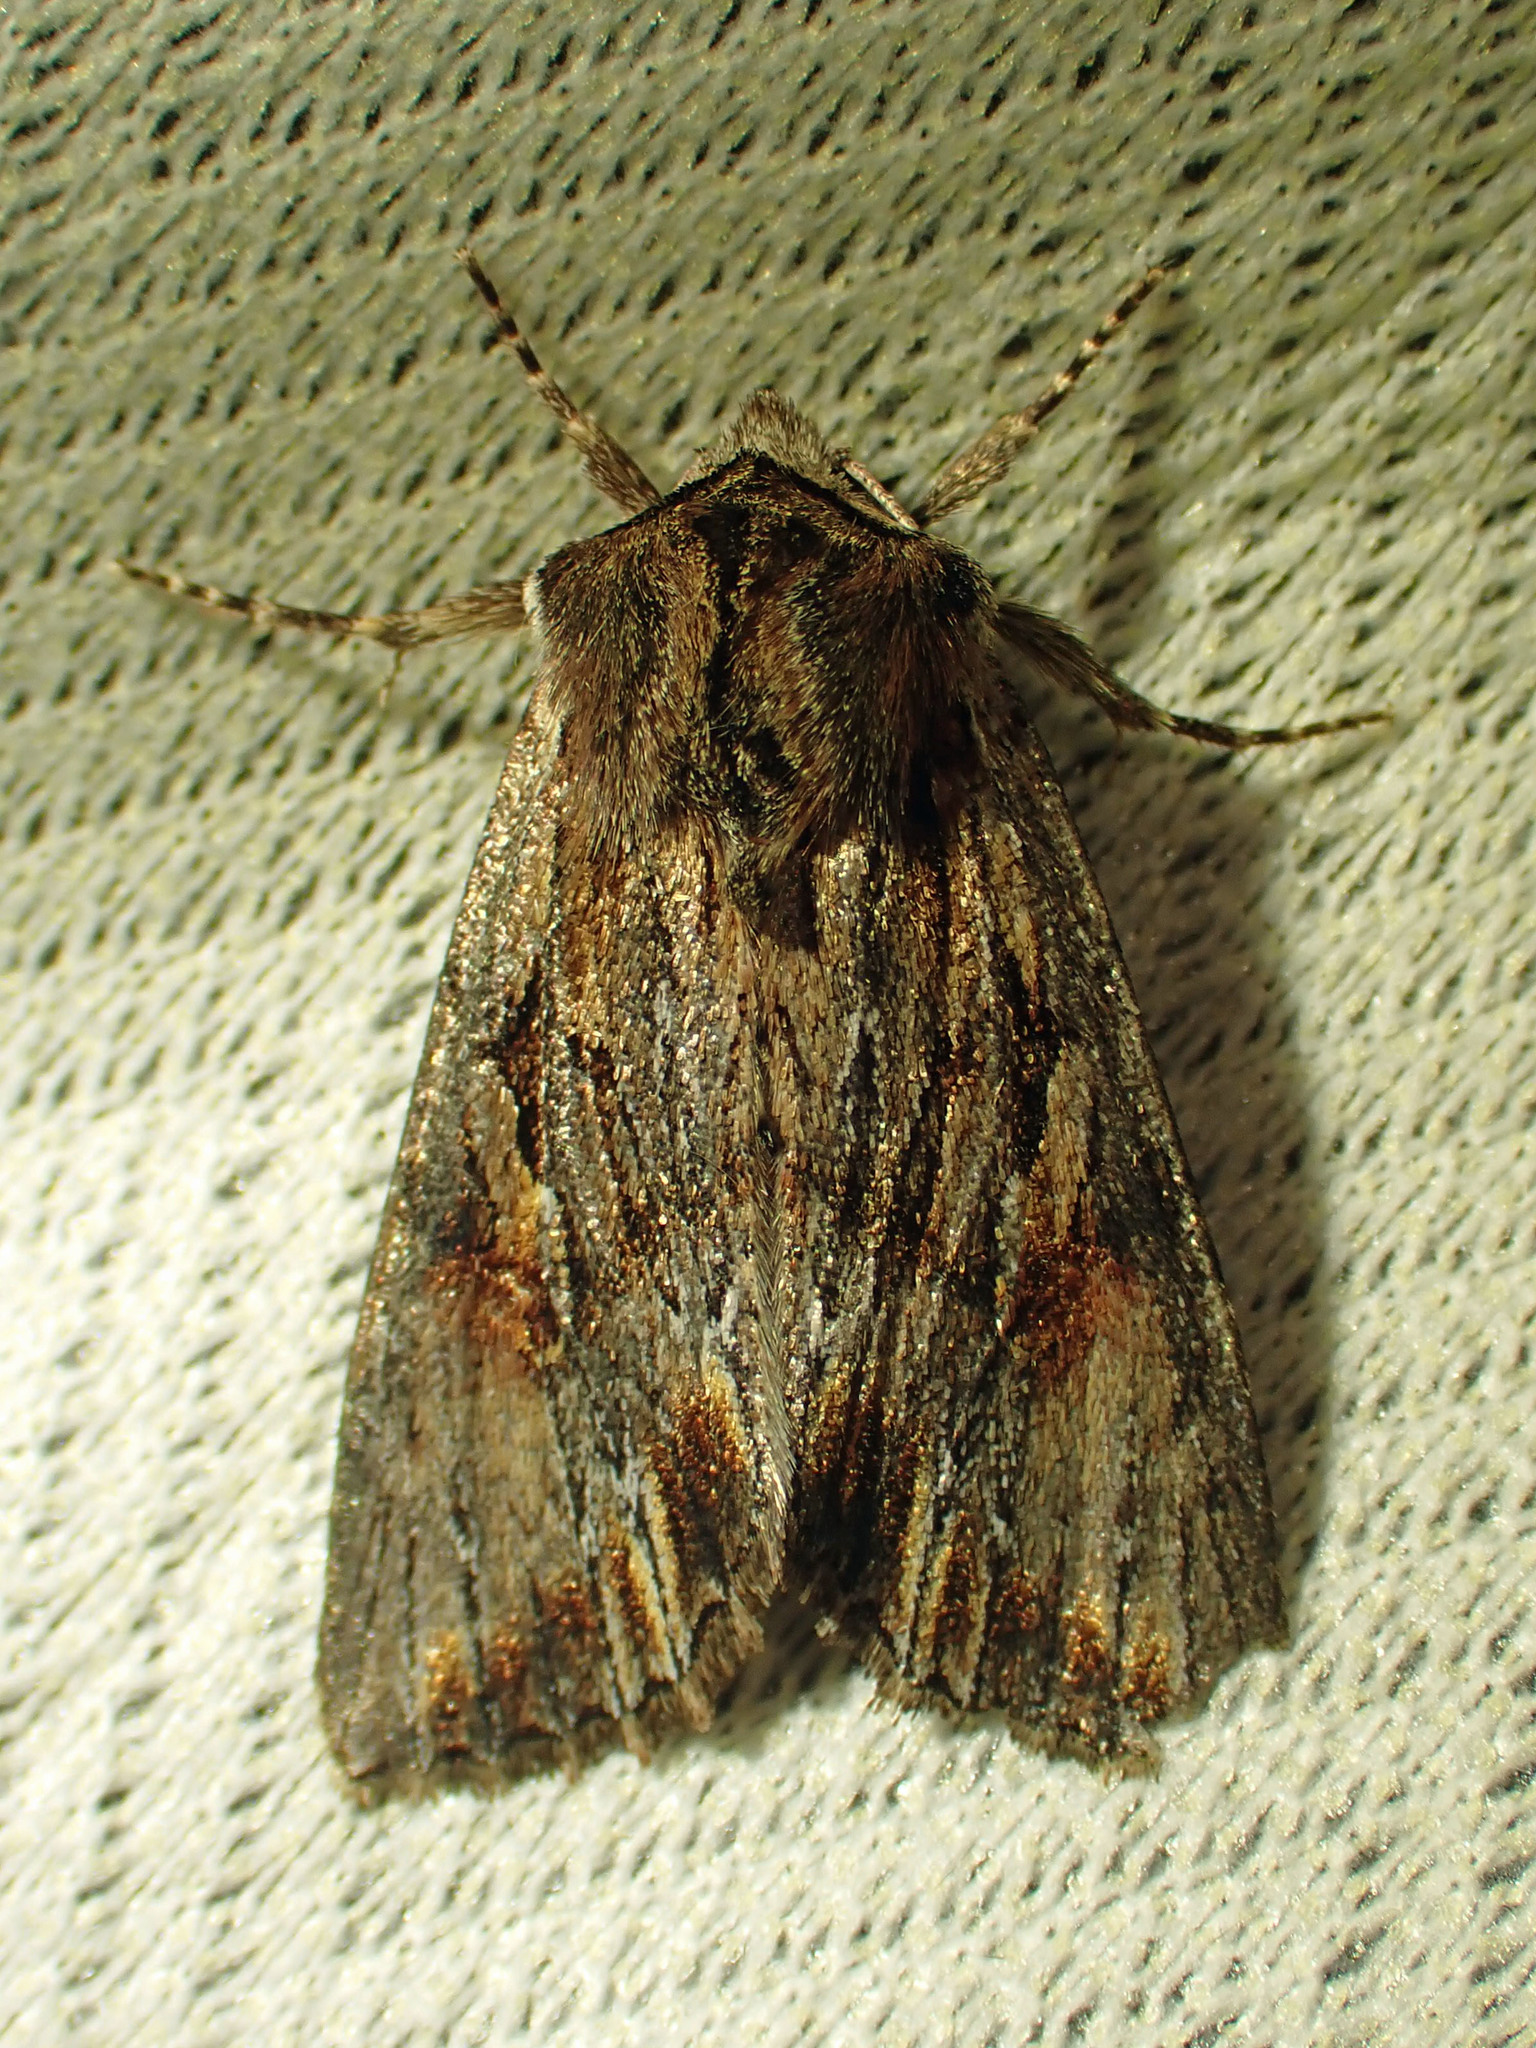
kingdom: Animalia
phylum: Arthropoda
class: Insecta
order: Lepidoptera
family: Noctuidae
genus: Achatia
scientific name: Achatia evicta
